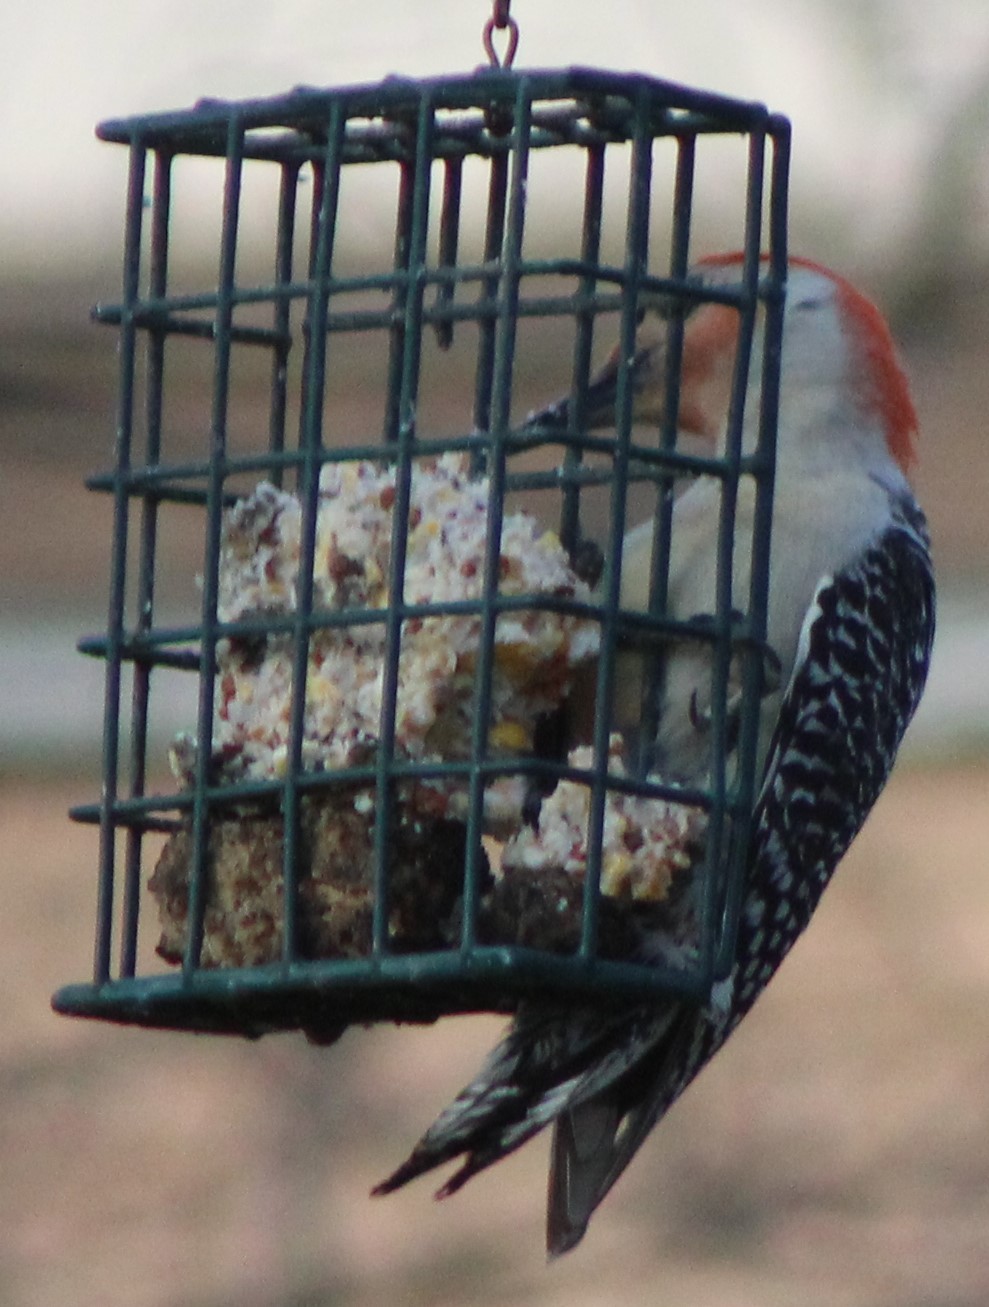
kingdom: Animalia
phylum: Chordata
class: Aves
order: Piciformes
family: Picidae
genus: Melanerpes
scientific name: Melanerpes carolinus
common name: Red-bellied woodpecker
